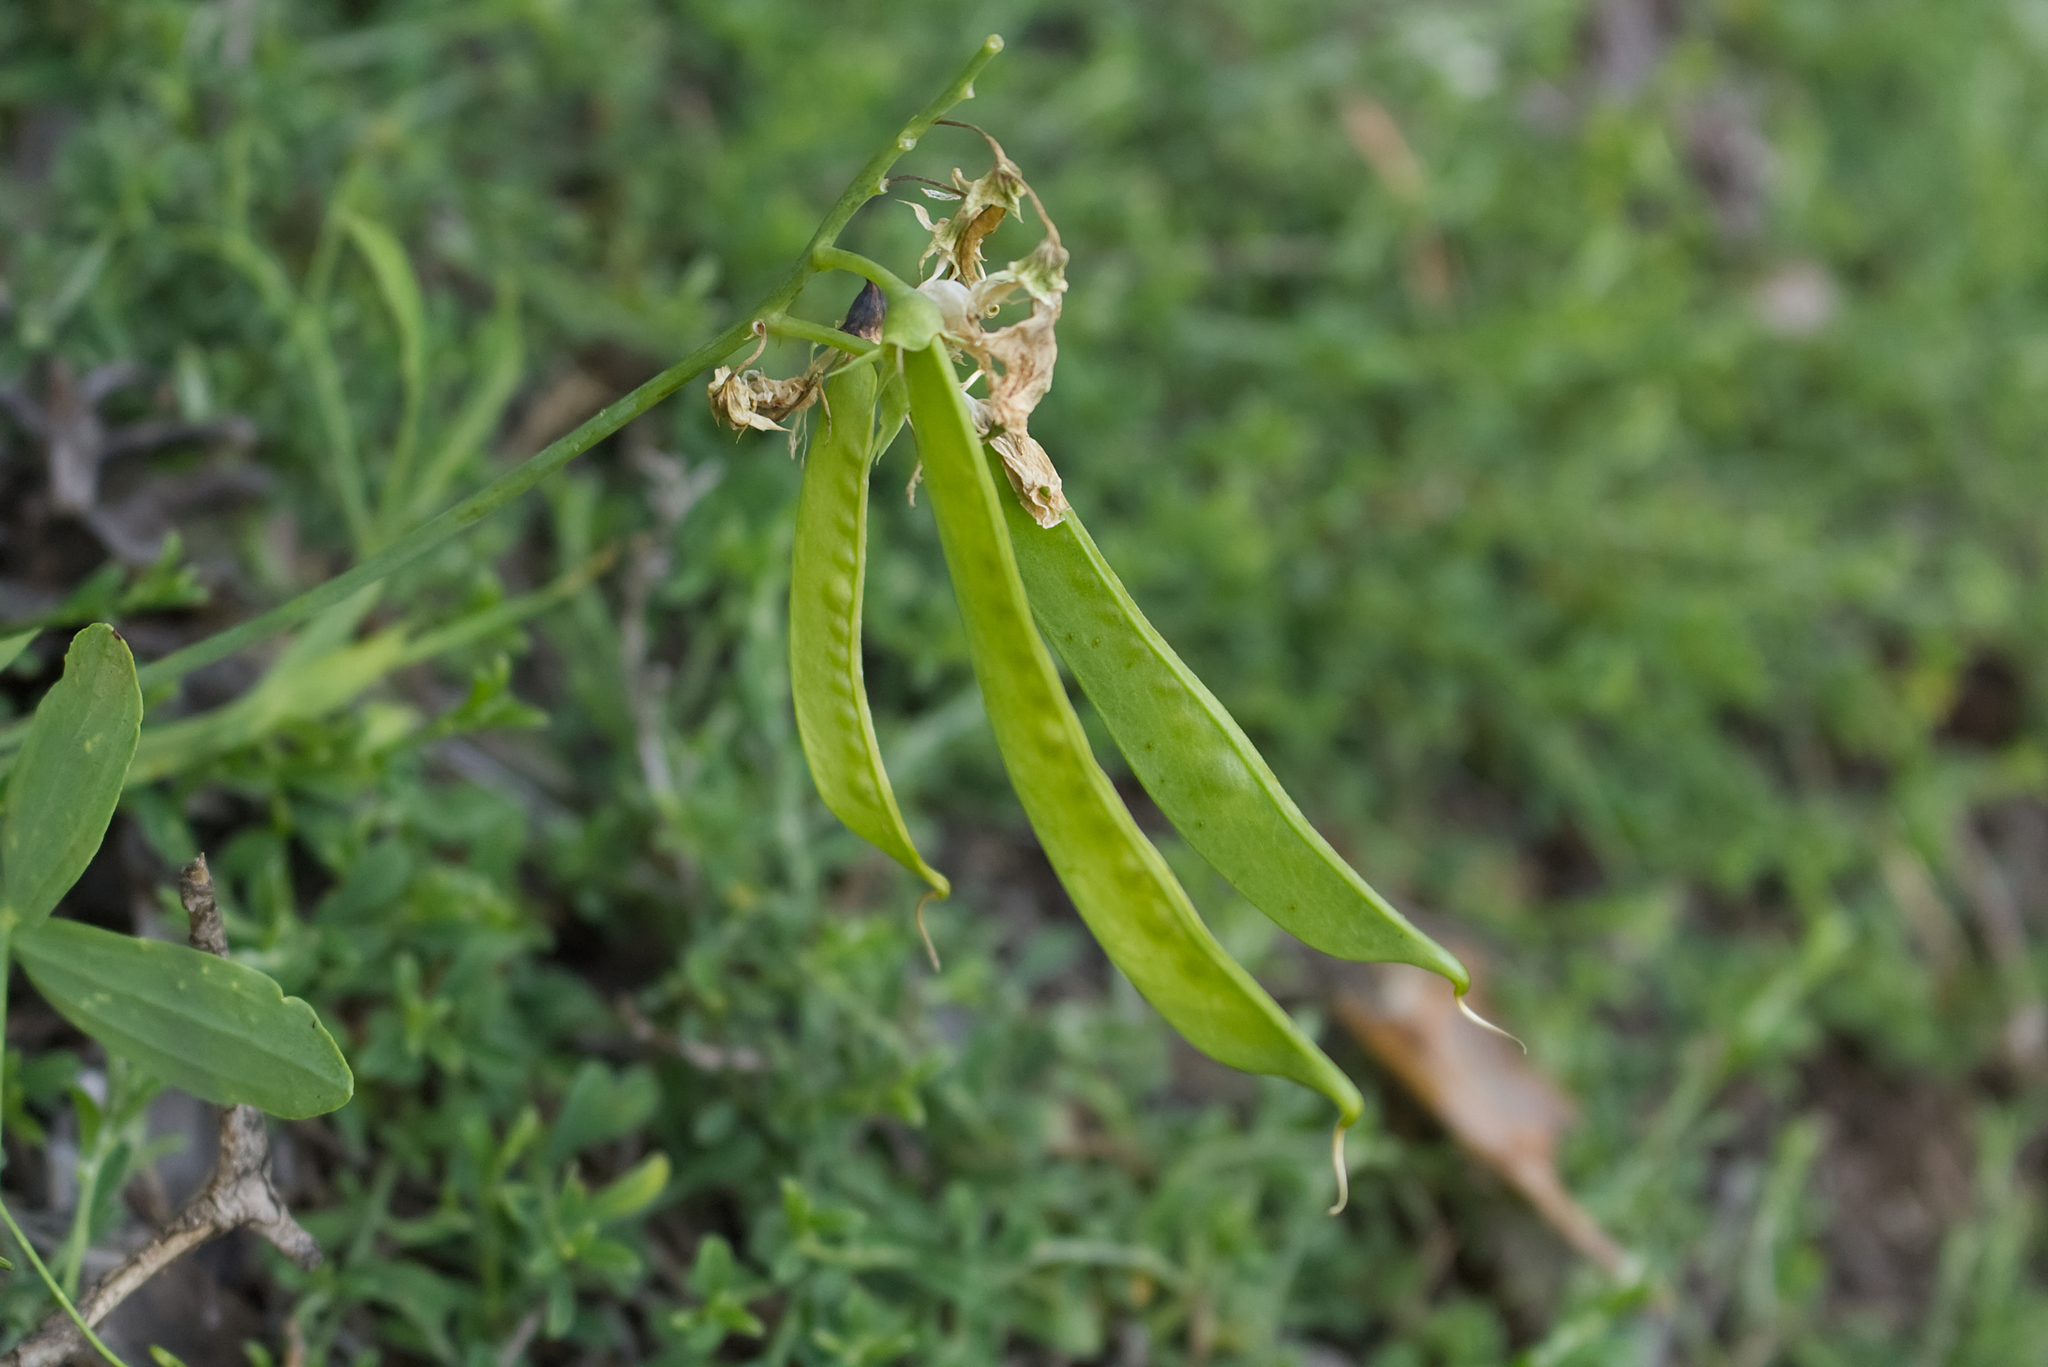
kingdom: Plantae
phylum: Tracheophyta
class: Magnoliopsida
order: Fabales
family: Fabaceae
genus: Lathyrus
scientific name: Lathyrus latifolius
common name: Perennial pea
